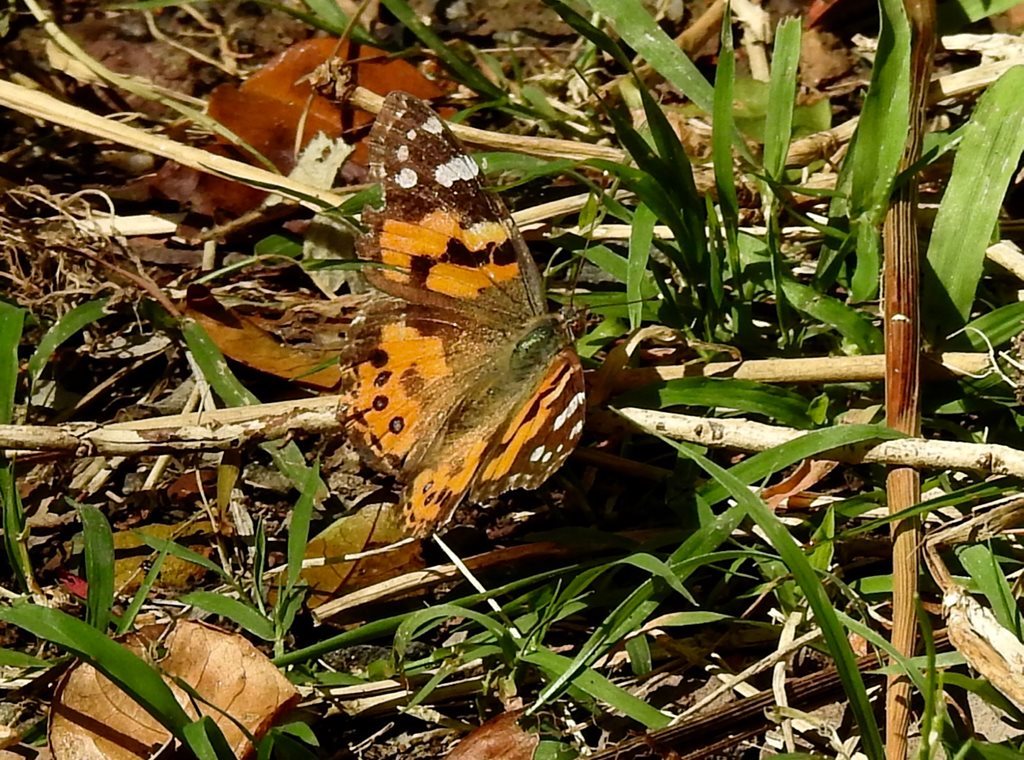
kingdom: Animalia
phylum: Arthropoda
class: Insecta
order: Lepidoptera
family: Nymphalidae
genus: Vanessa
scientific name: Vanessa kershawi
